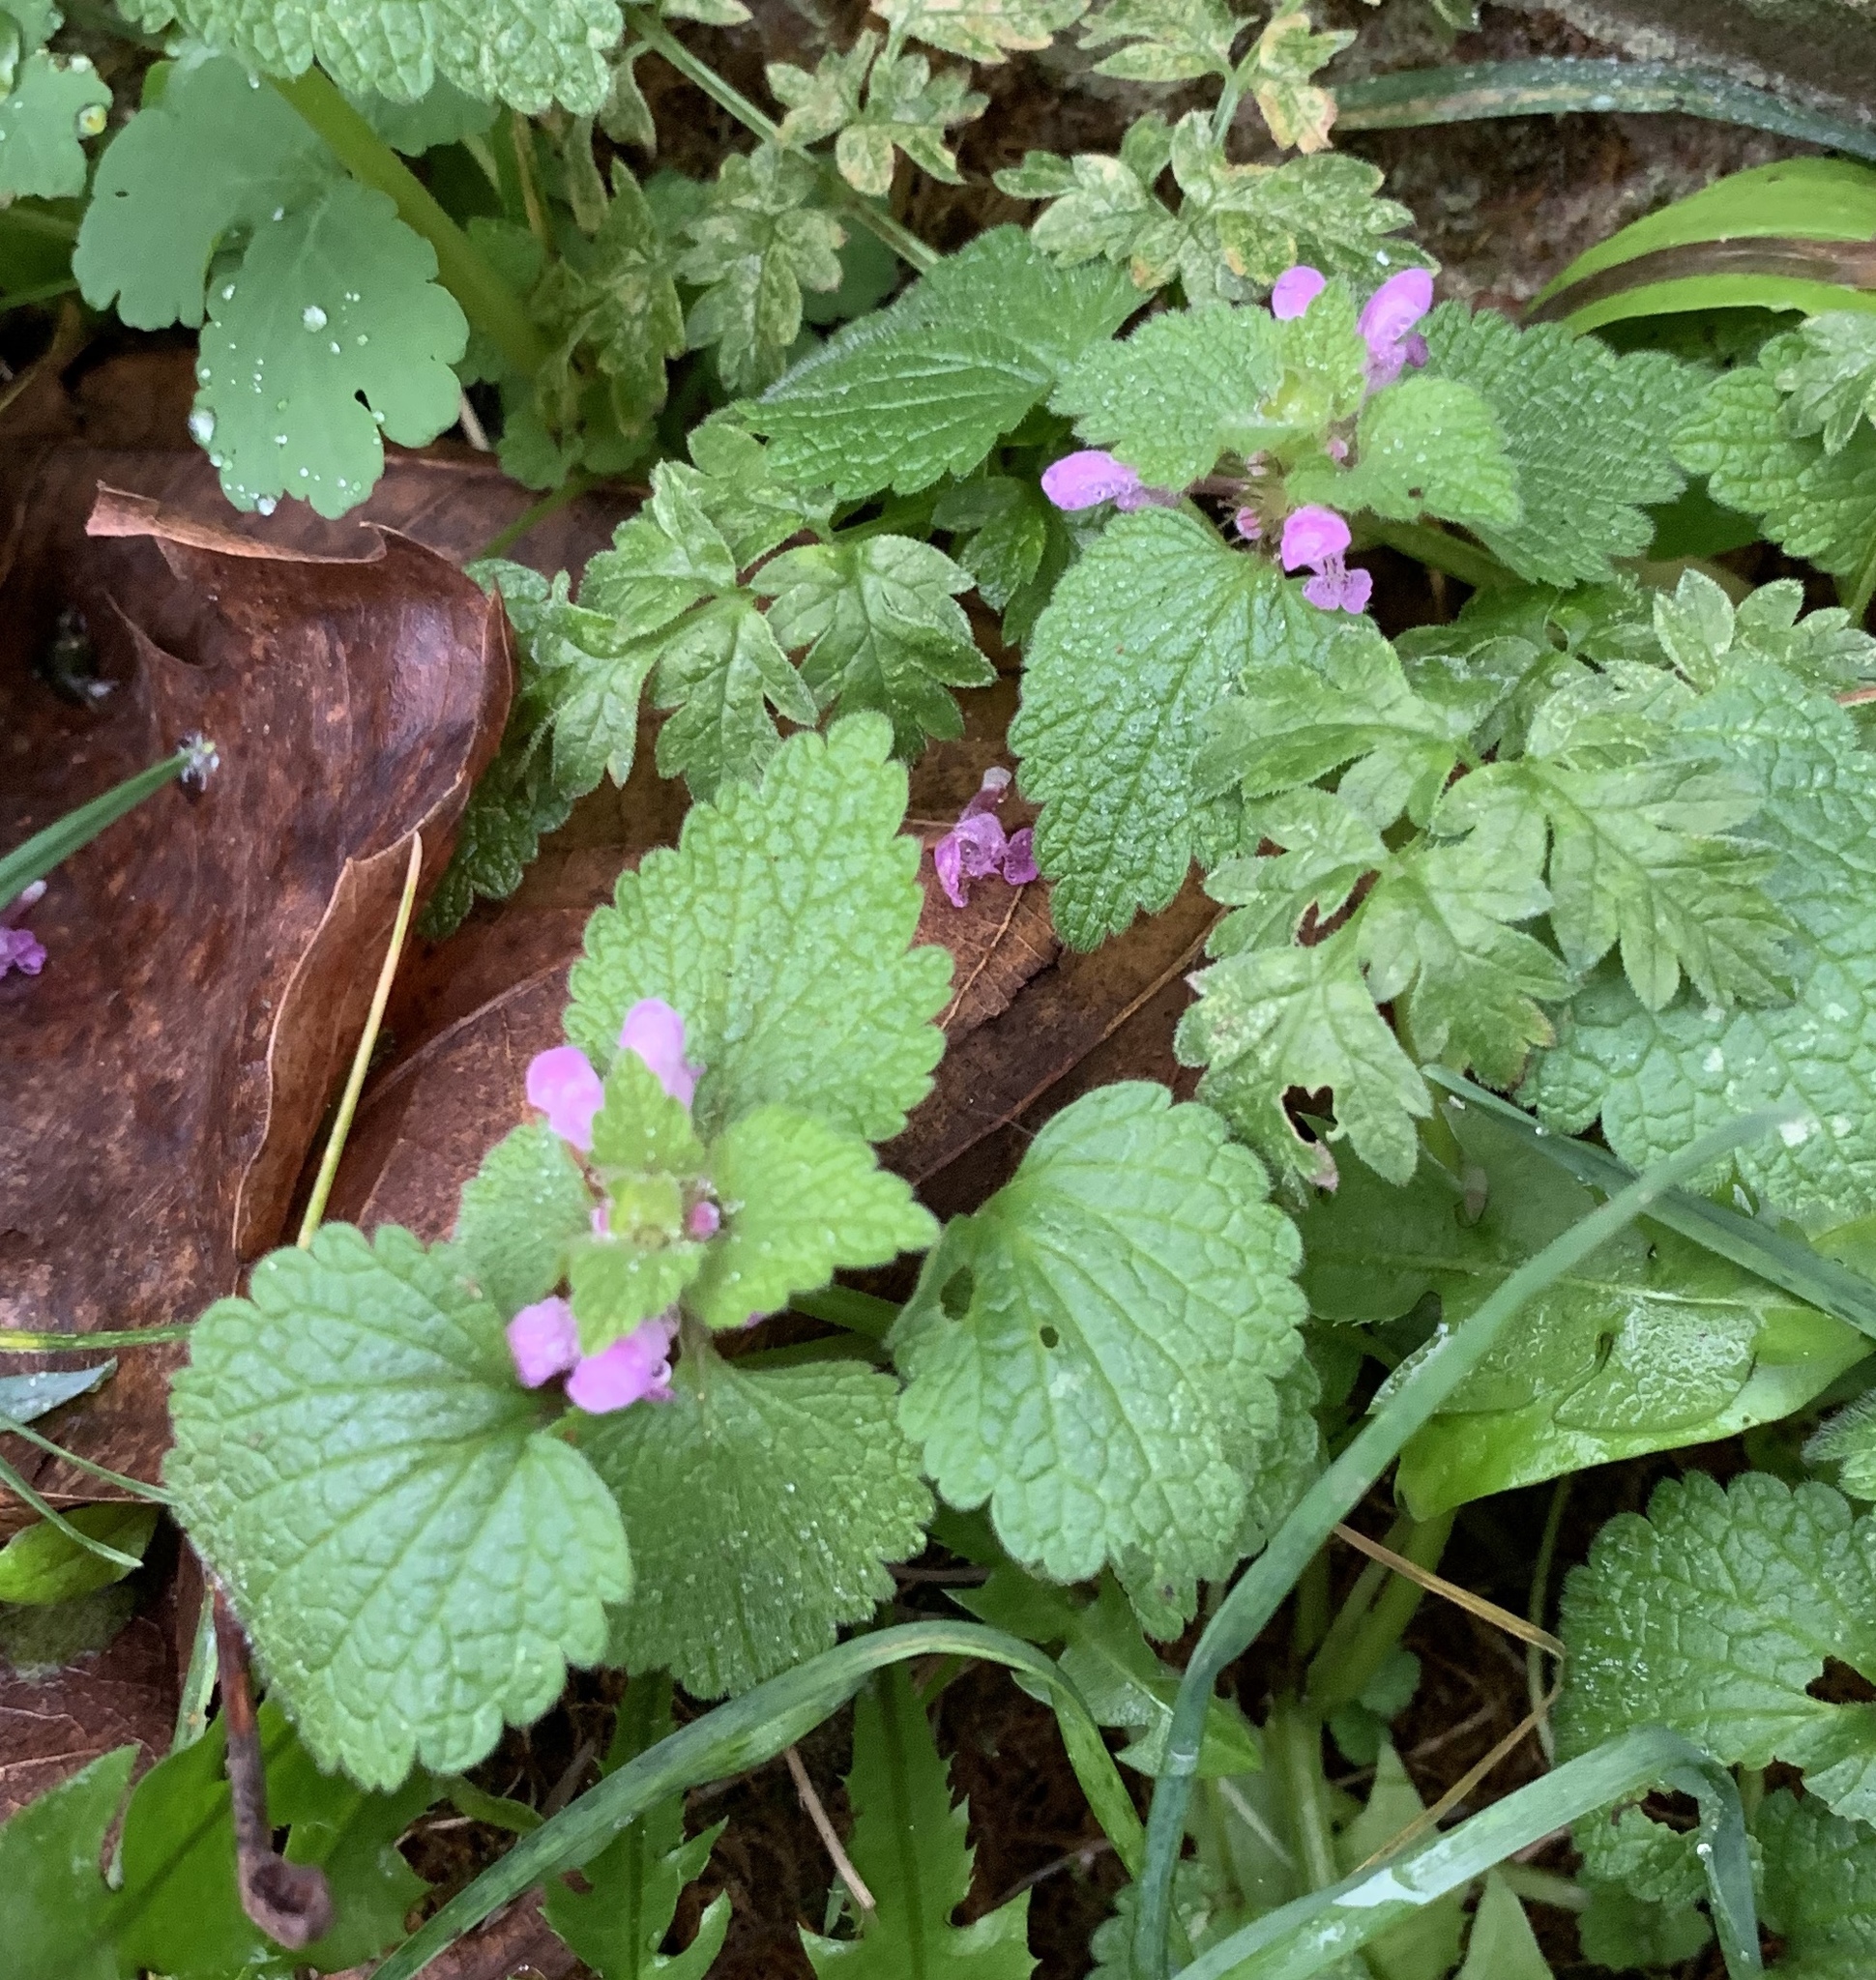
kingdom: Plantae
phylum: Tracheophyta
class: Magnoliopsida
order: Lamiales
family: Lamiaceae
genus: Lamium
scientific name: Lamium purpureum
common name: Red dead-nettle
